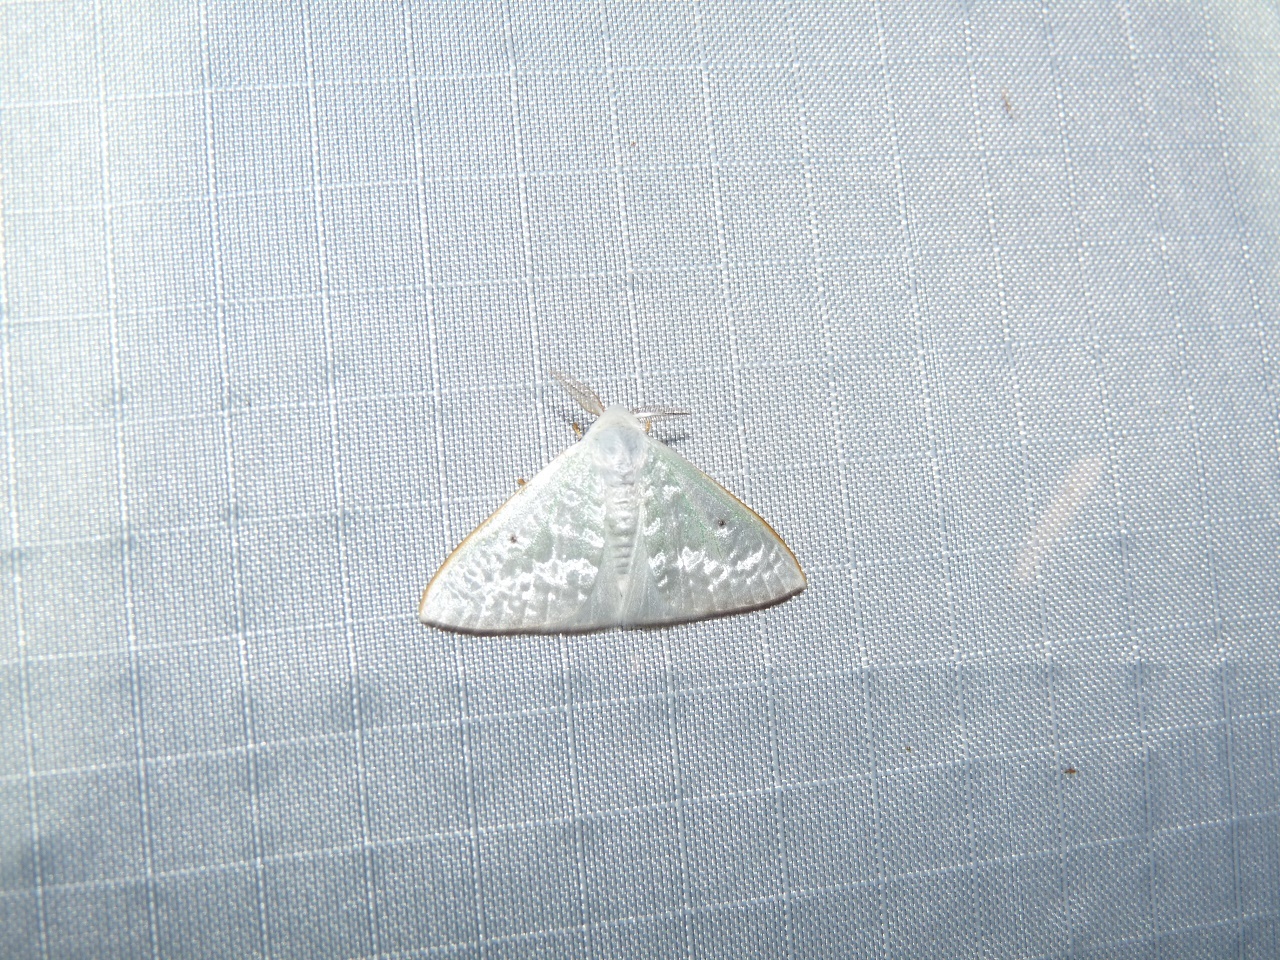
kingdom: Animalia
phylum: Arthropoda
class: Insecta
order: Lepidoptera
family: Erebidae
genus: Arctornis
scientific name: Arctornis phrika
